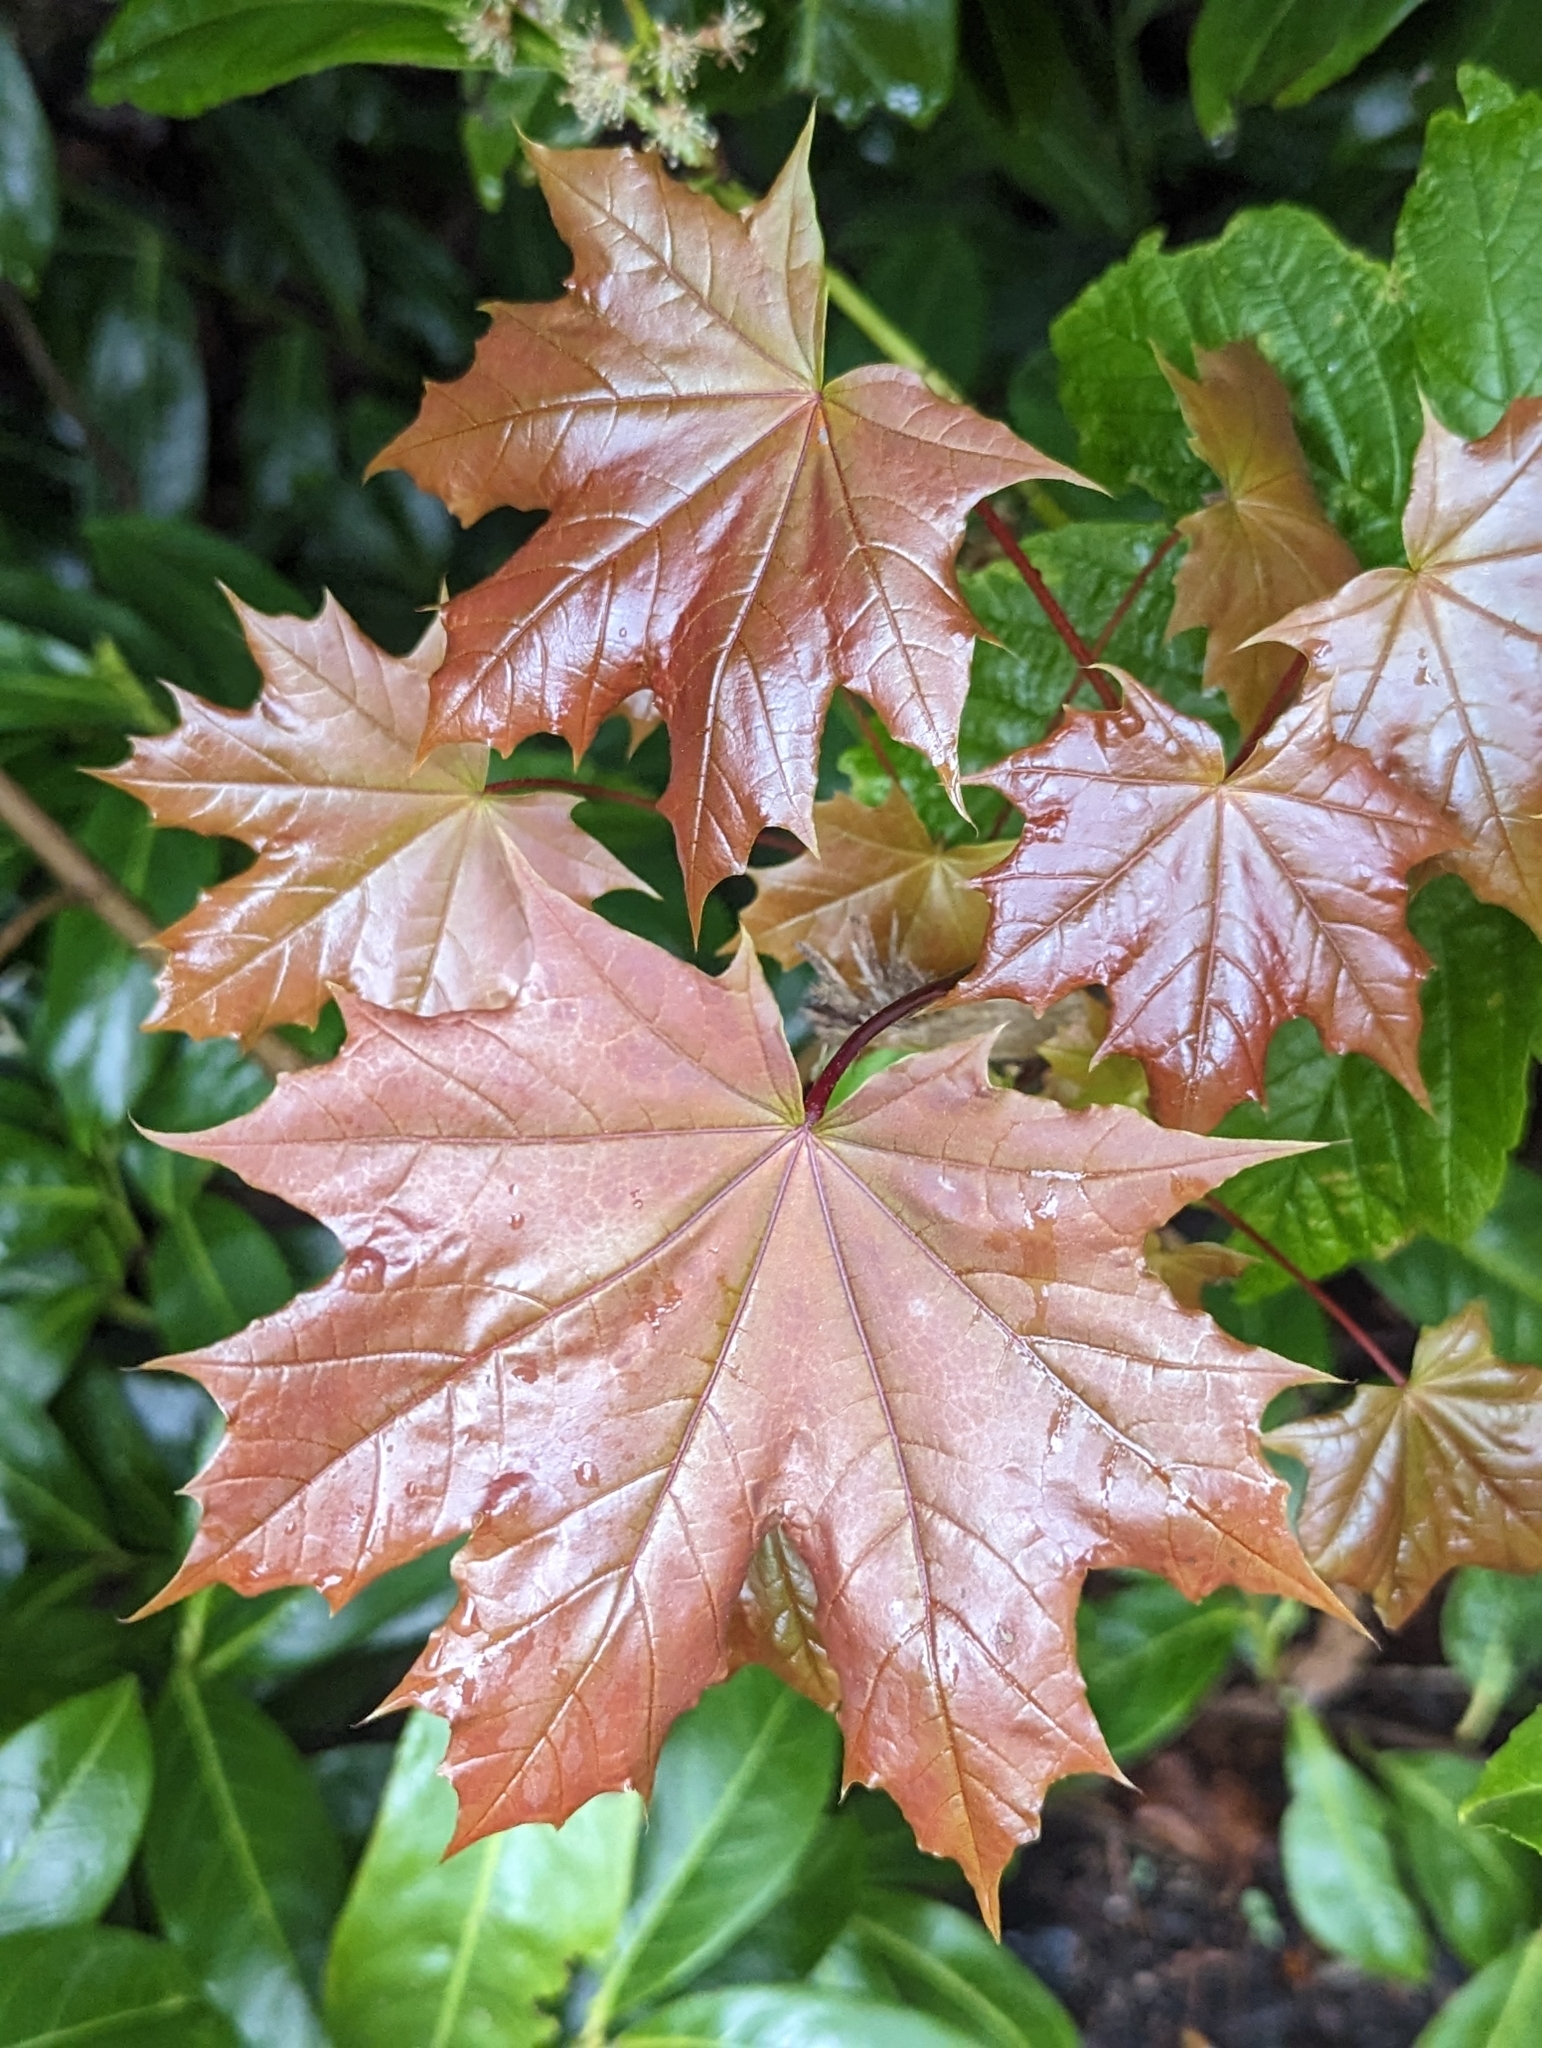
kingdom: Plantae
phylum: Tracheophyta
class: Magnoliopsida
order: Sapindales
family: Sapindaceae
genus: Acer
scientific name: Acer platanoides
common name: Norway maple
